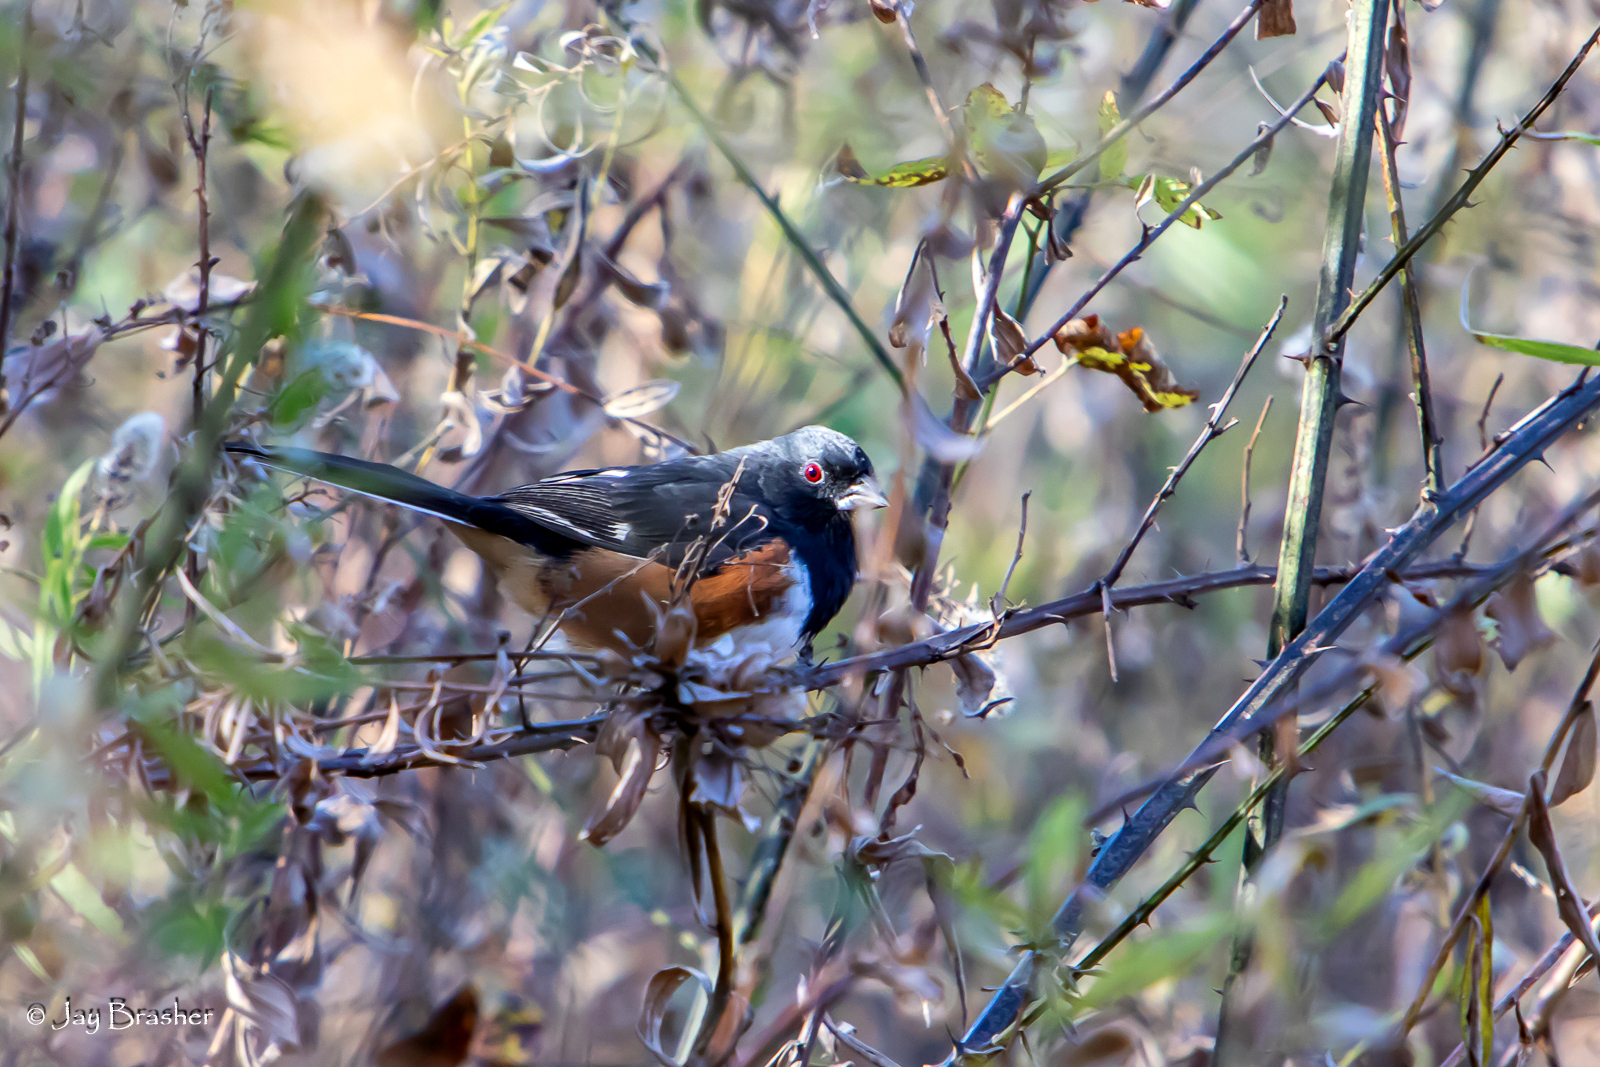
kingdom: Animalia
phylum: Chordata
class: Aves
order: Passeriformes
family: Passerellidae
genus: Pipilo
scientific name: Pipilo erythrophthalmus
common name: Eastern towhee
